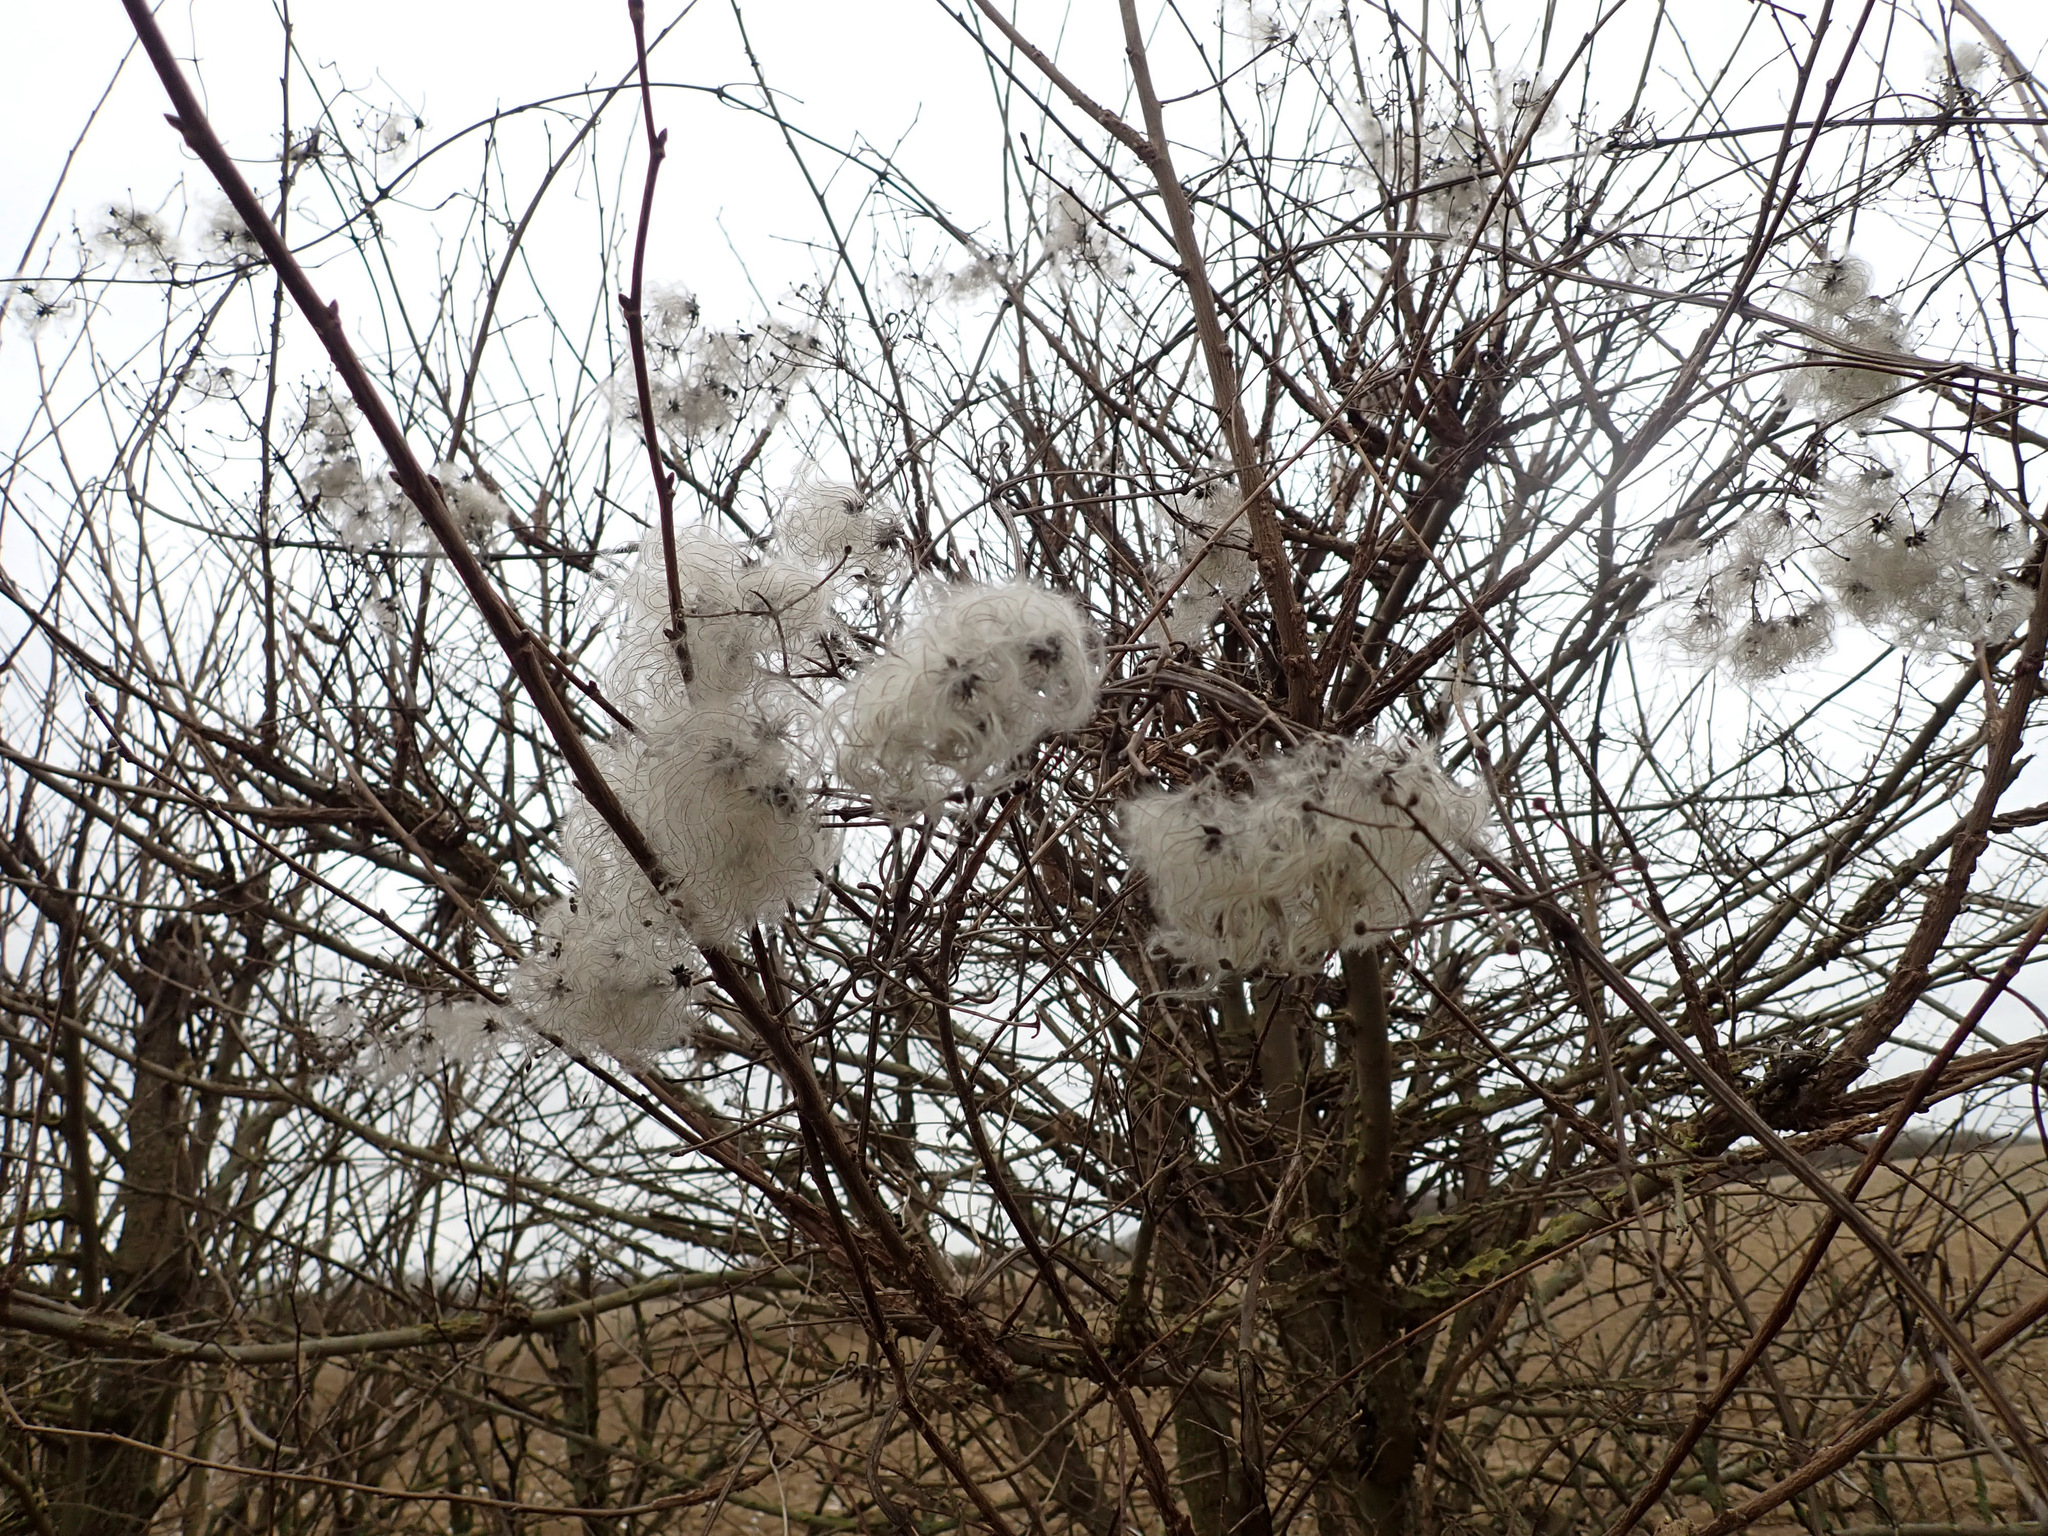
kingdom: Plantae
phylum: Tracheophyta
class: Magnoliopsida
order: Ranunculales
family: Ranunculaceae
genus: Clematis
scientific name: Clematis vitalba
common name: Evergreen clematis
